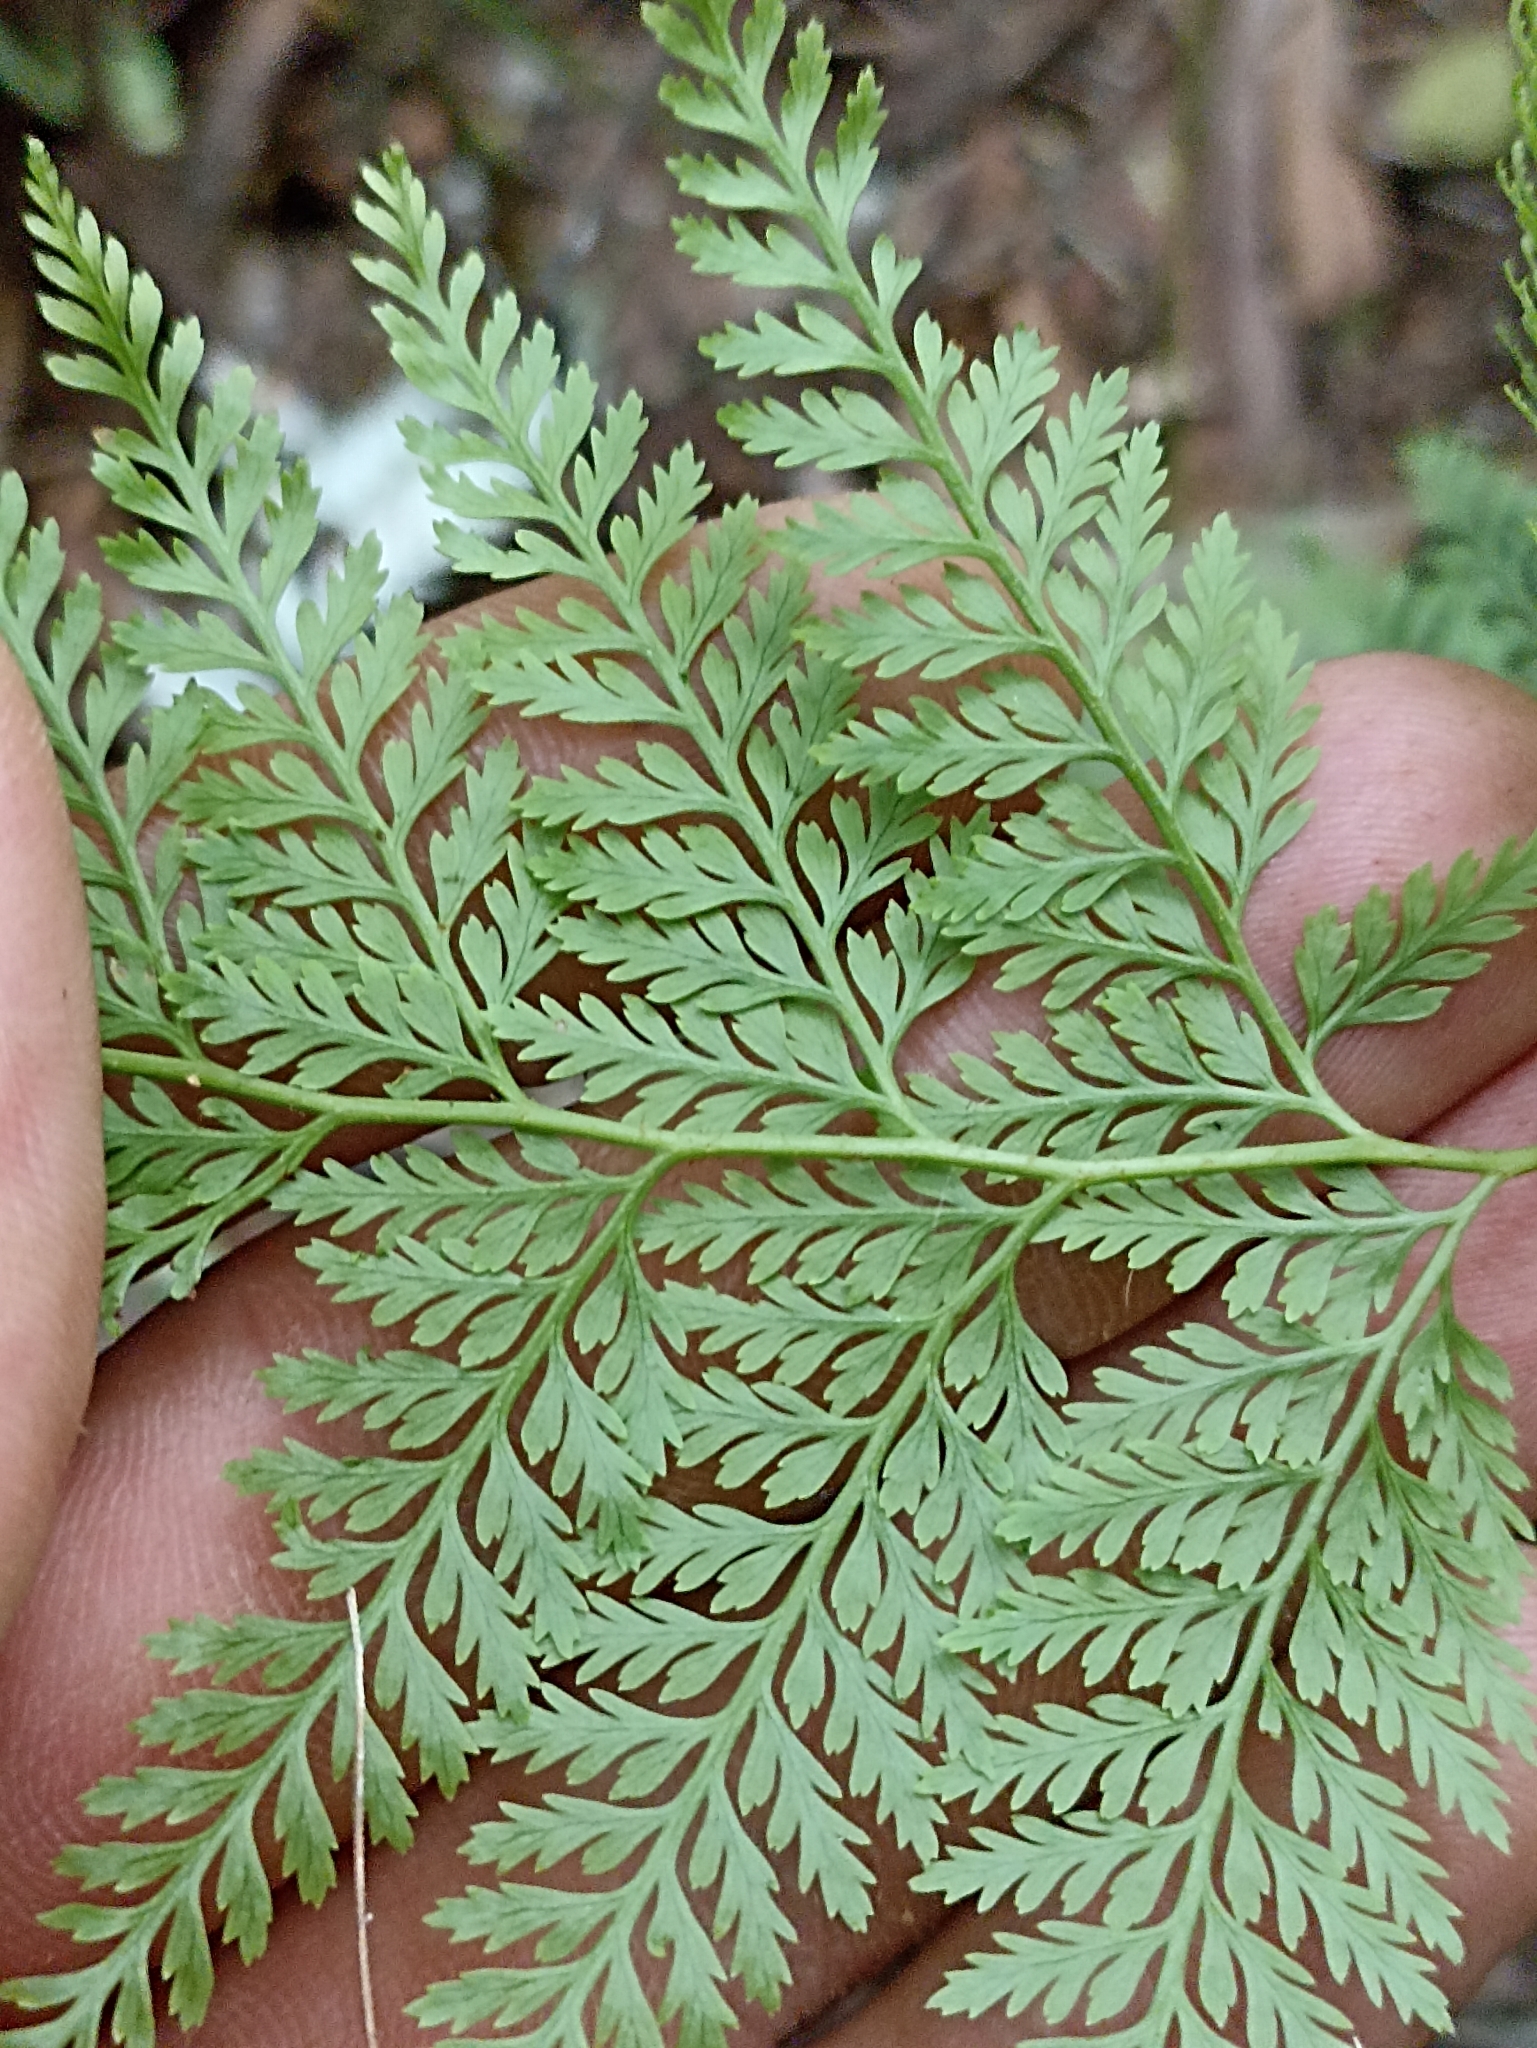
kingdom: Plantae
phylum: Tracheophyta
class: Polypodiopsida
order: Polypodiales
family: Dennstaedtiaceae
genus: Paesia
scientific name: Paesia scaberula
